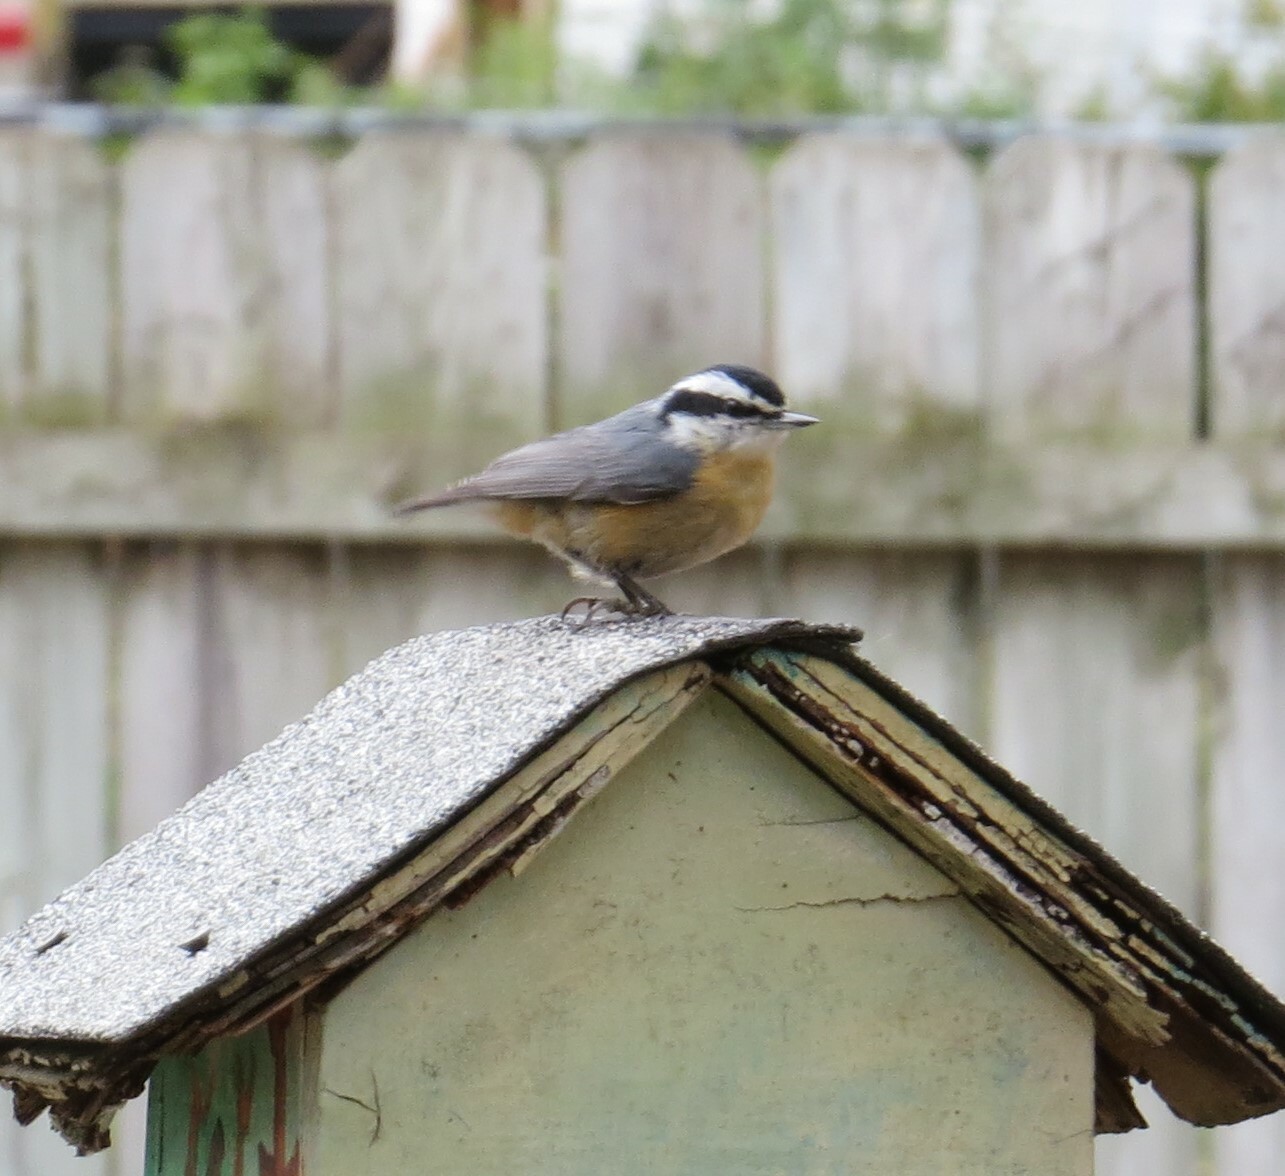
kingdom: Animalia
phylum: Chordata
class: Aves
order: Passeriformes
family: Sittidae
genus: Sitta
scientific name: Sitta canadensis
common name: Red-breasted nuthatch
